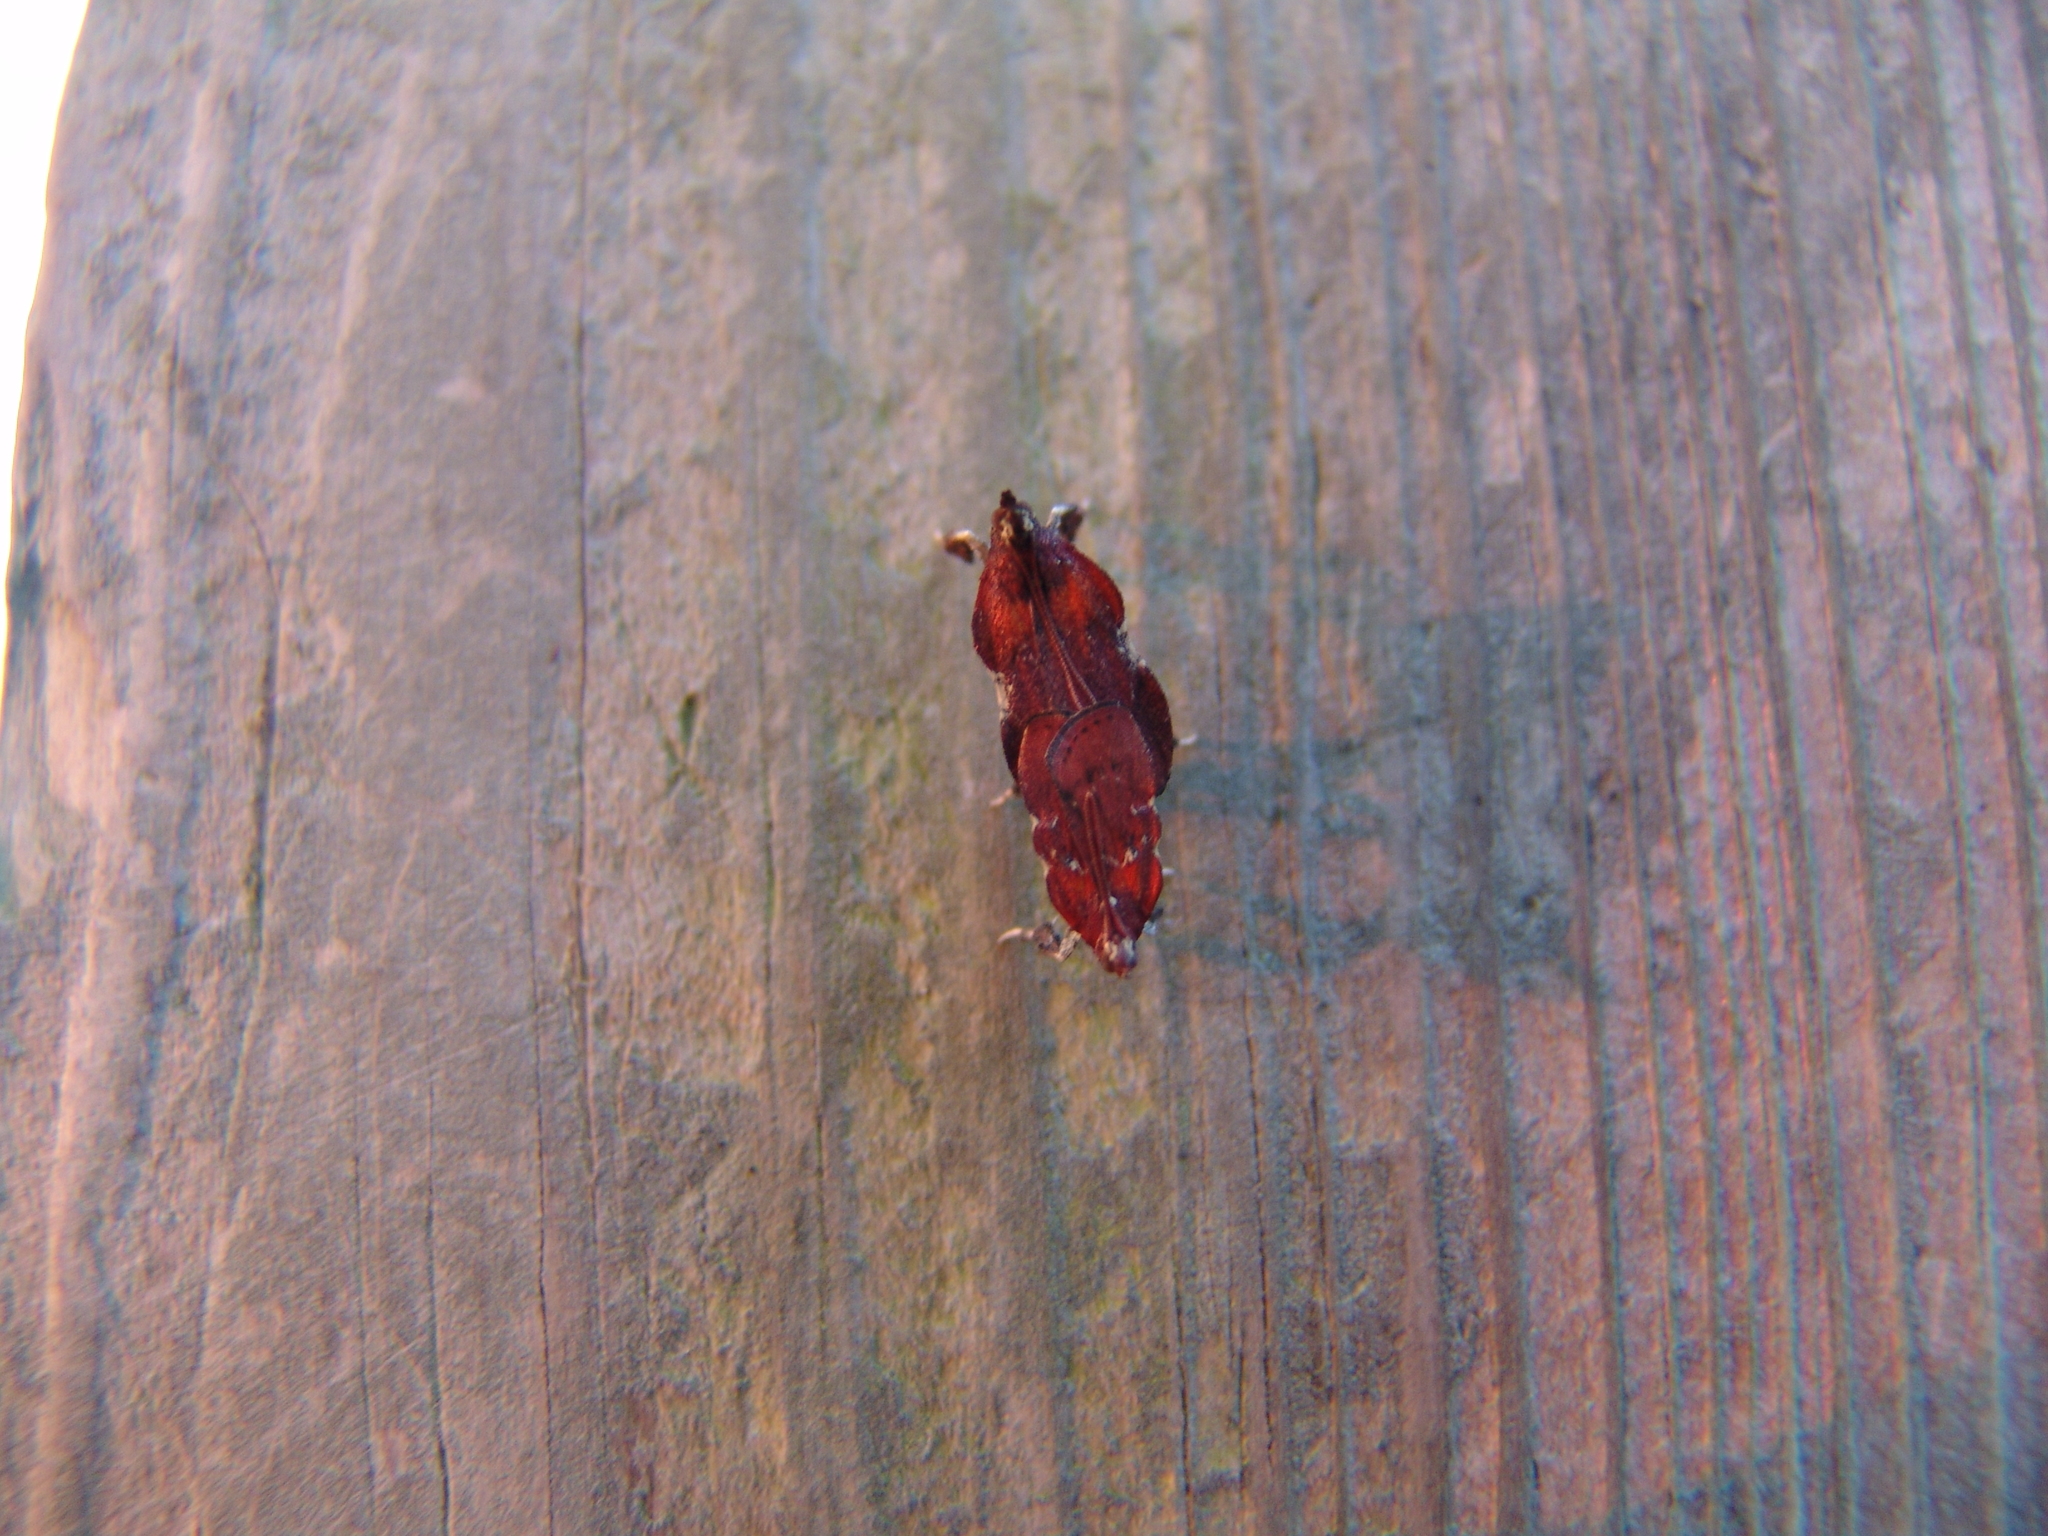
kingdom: Animalia
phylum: Arthropoda
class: Insecta
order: Lepidoptera
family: Pyralidae
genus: Galasa
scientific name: Galasa nigrinodis
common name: Boxwood leaftier moth
